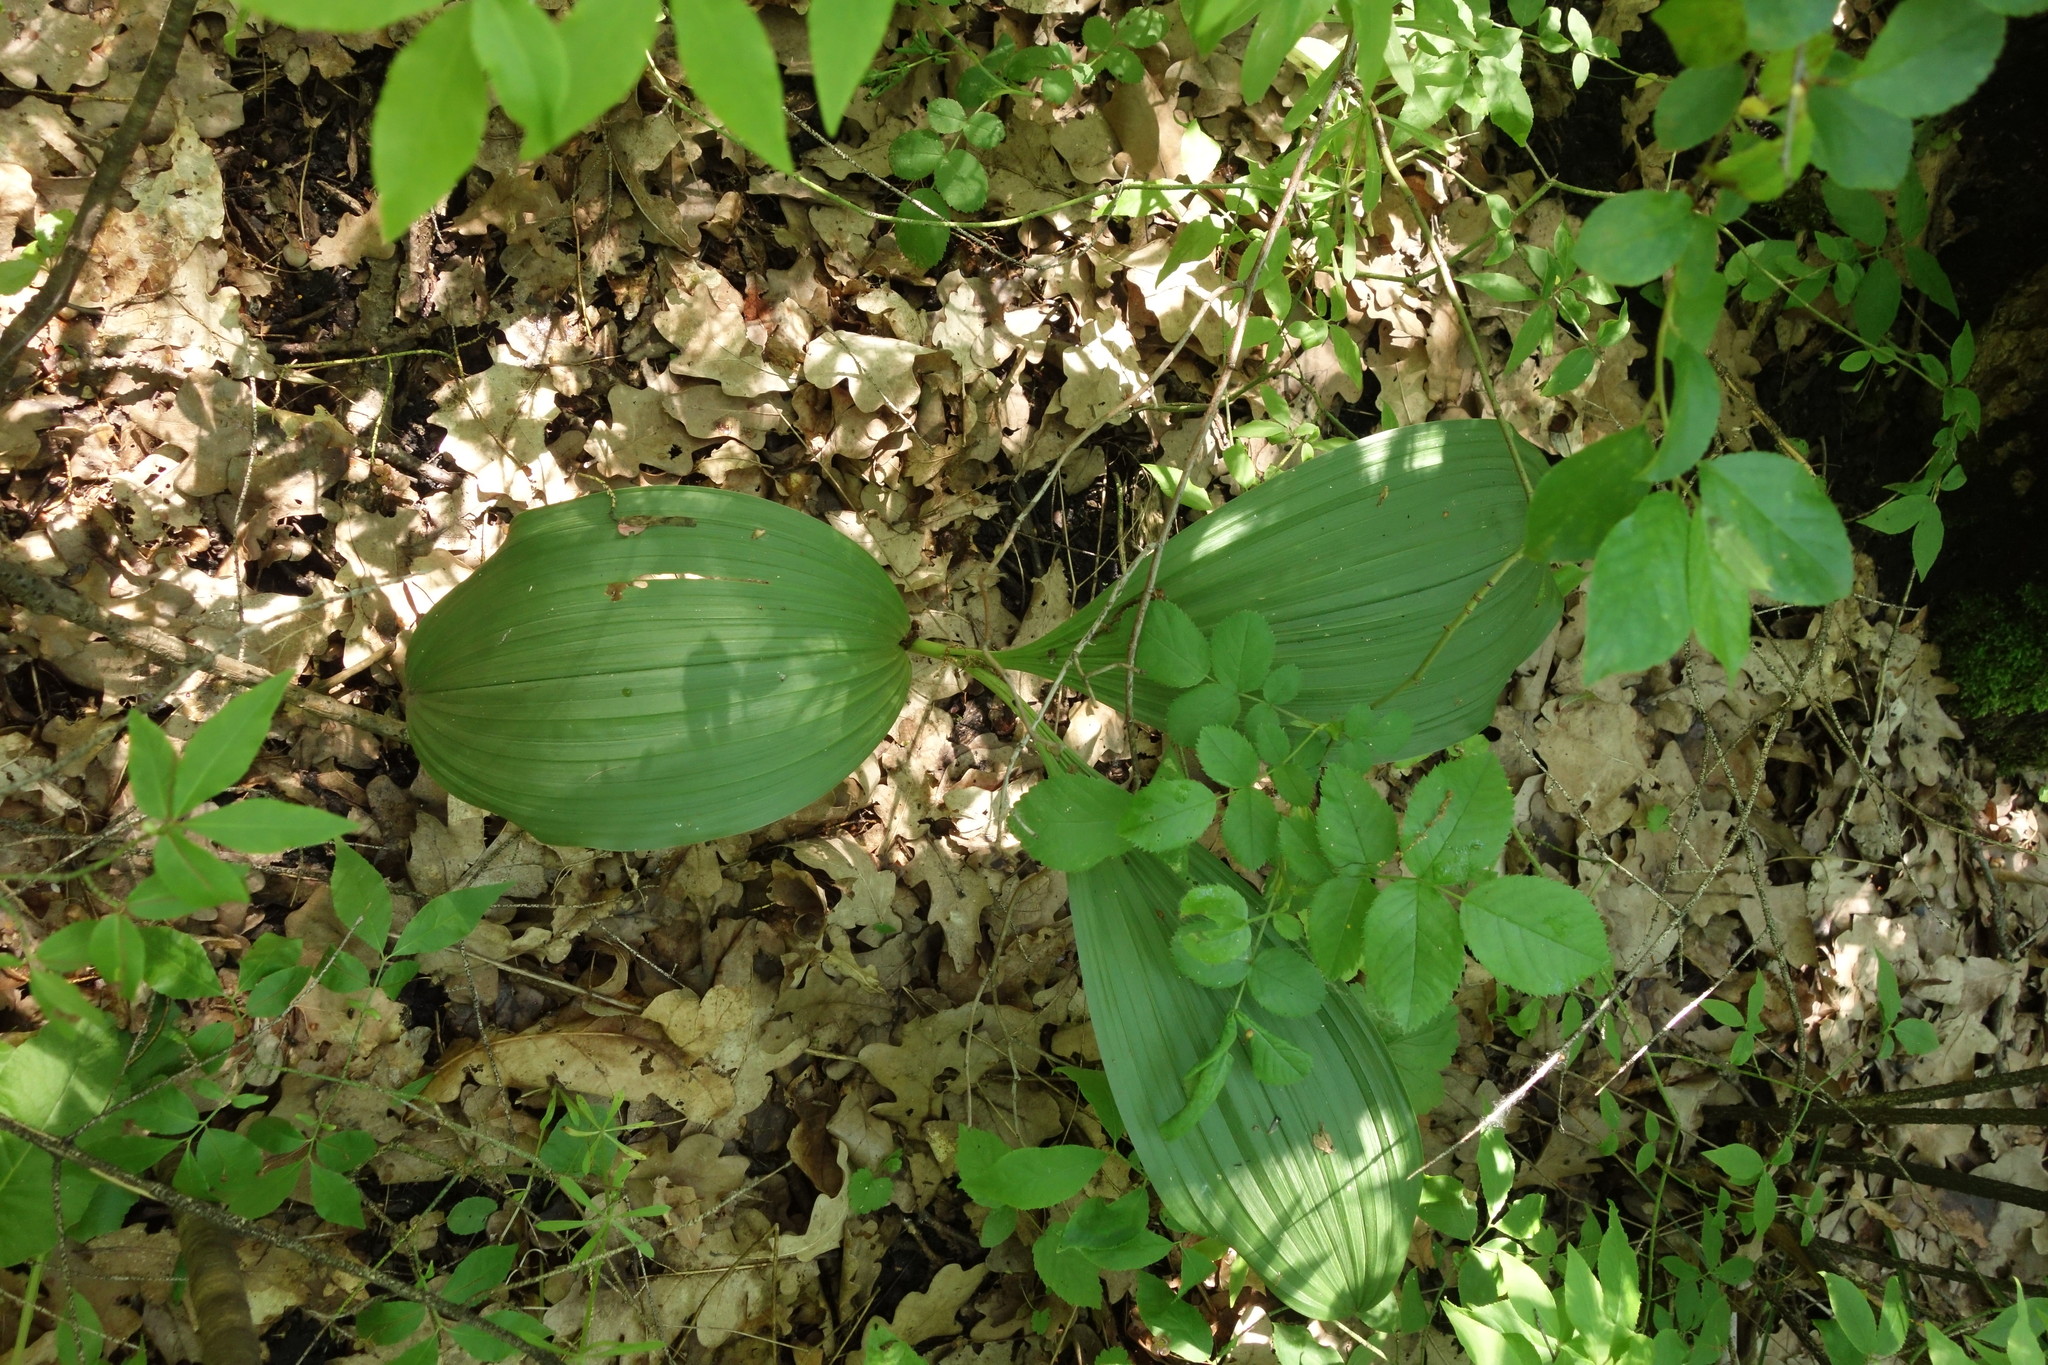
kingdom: Plantae
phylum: Tracheophyta
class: Liliopsida
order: Liliales
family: Melanthiaceae
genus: Veratrum
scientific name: Veratrum nigrum
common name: Black veratrum
